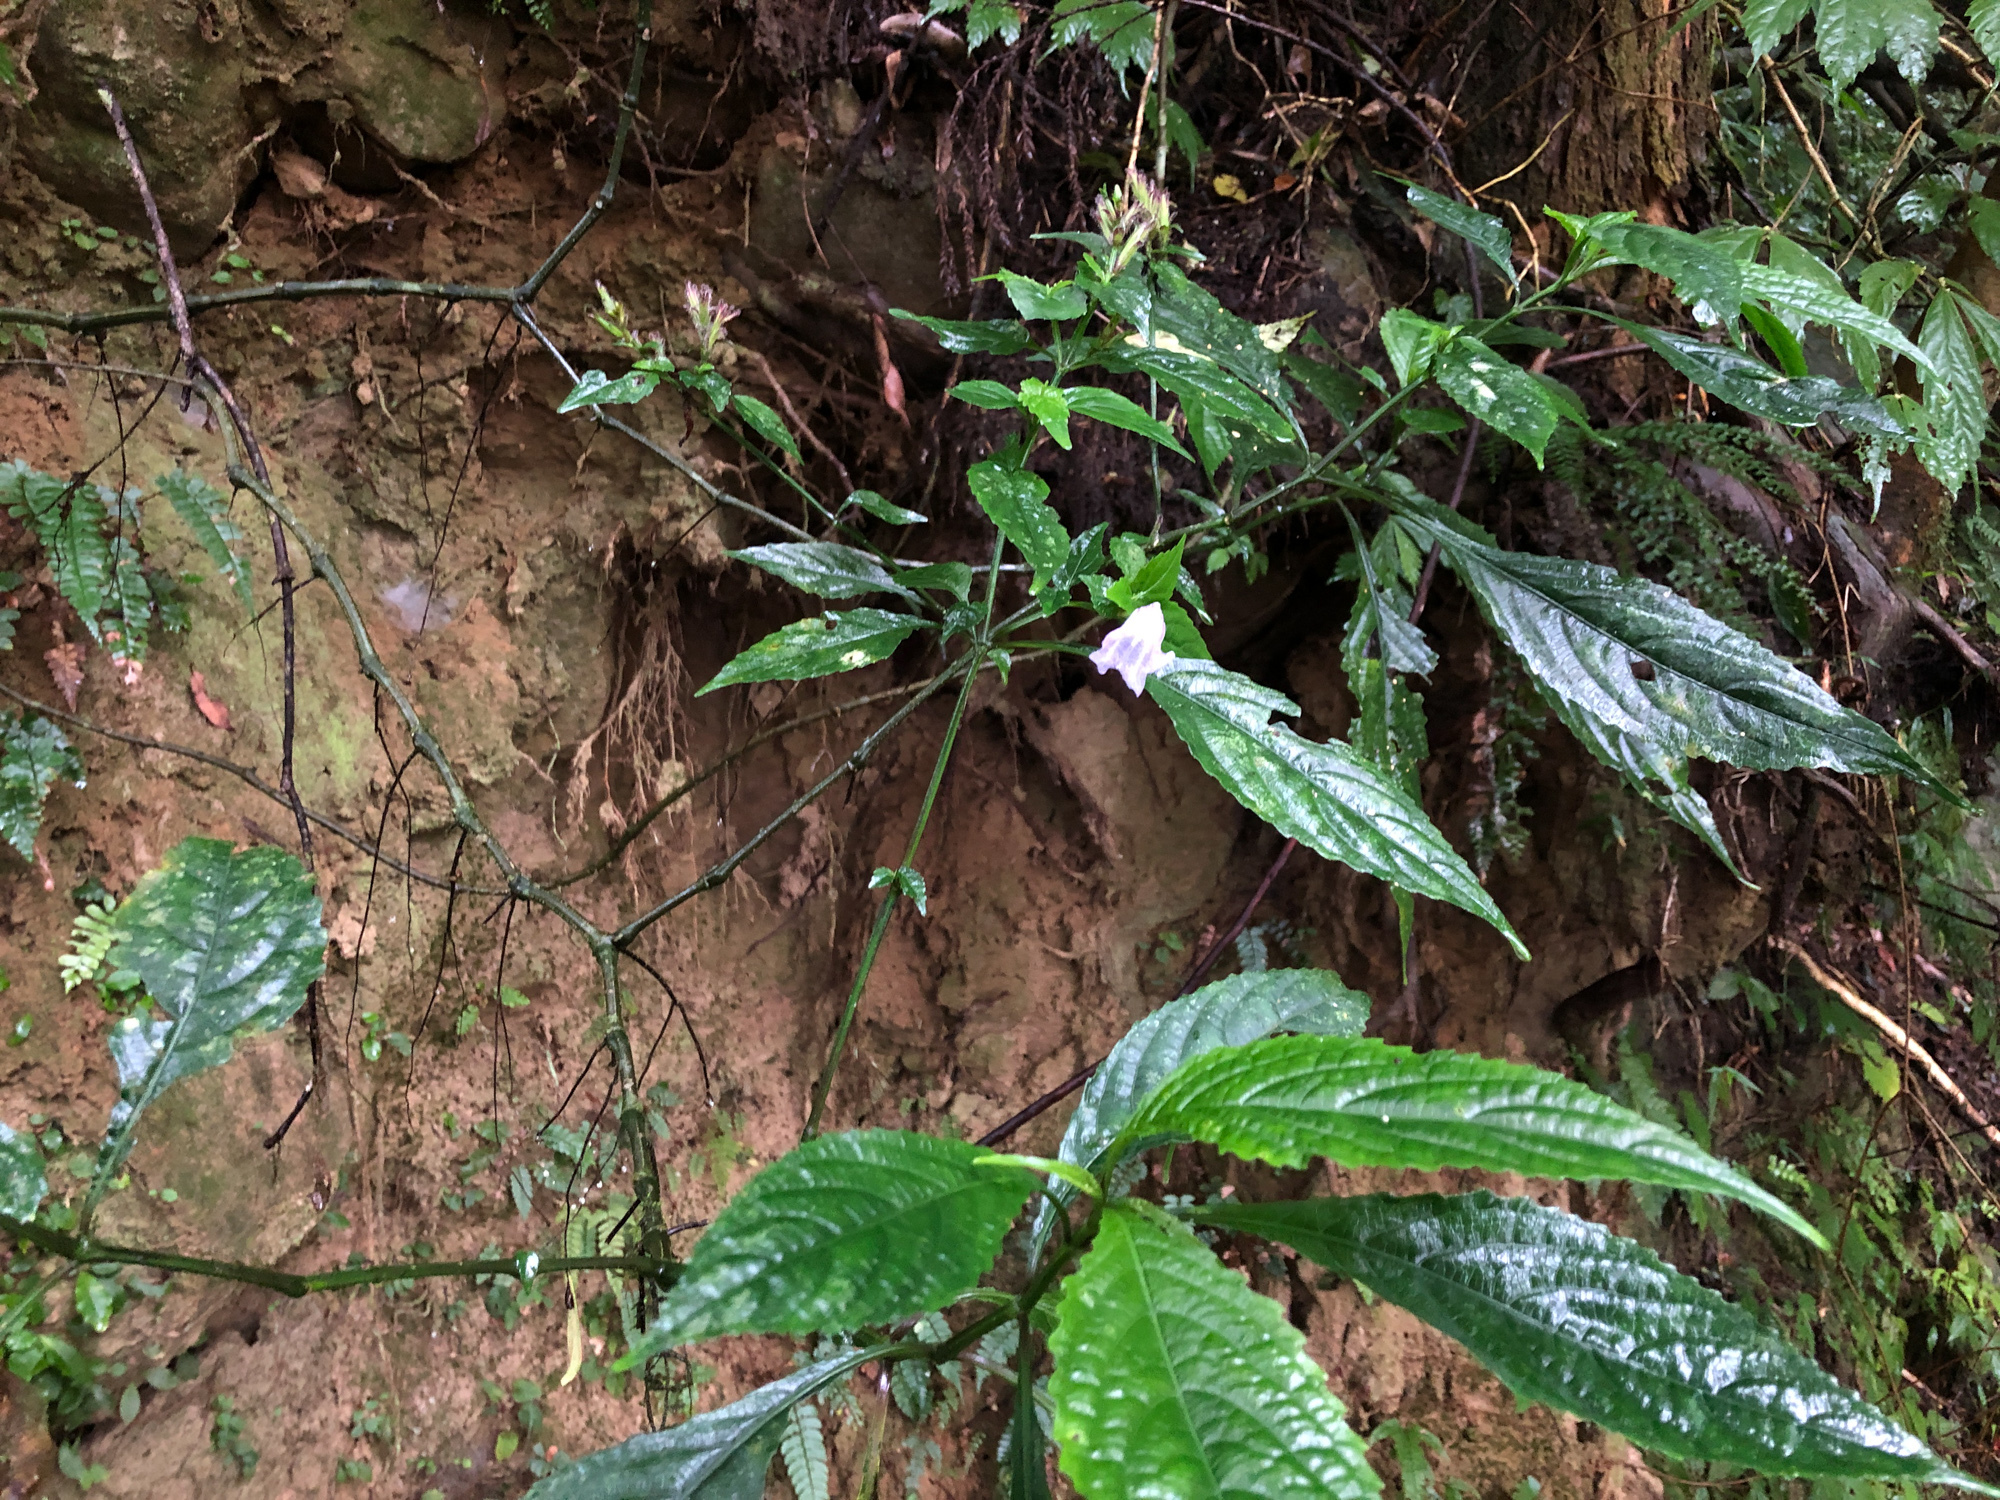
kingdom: Plantae
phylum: Tracheophyta
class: Magnoliopsida
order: Lamiales
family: Acanthaceae
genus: Strobilanthes
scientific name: Strobilanthes flexicaulis
